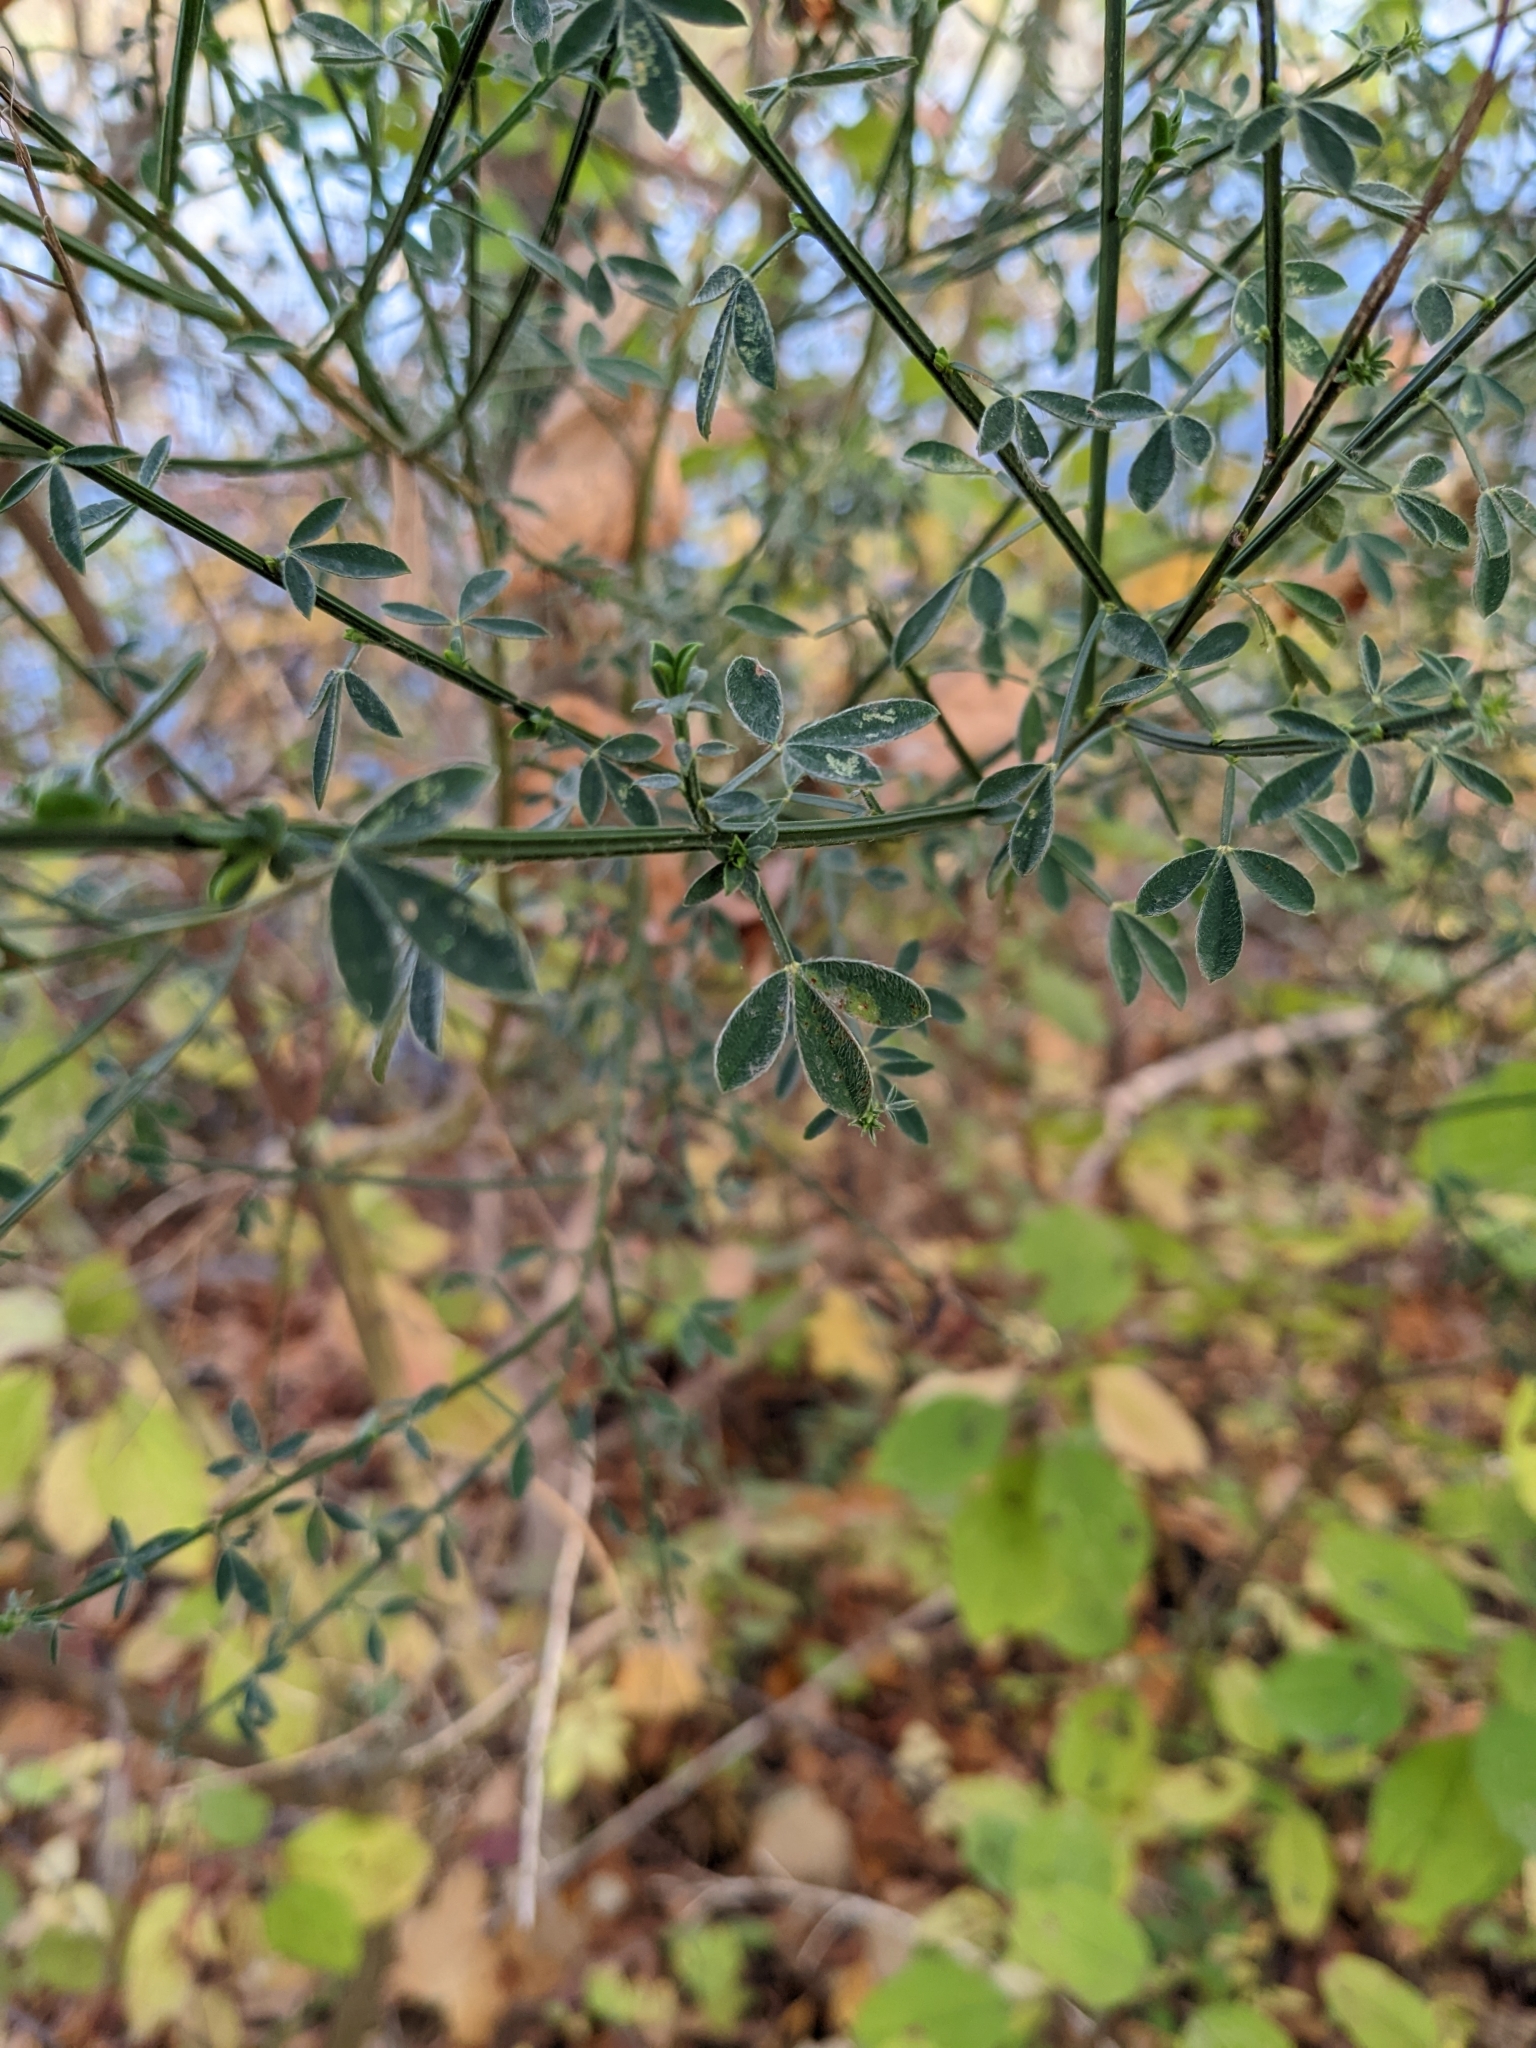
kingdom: Plantae
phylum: Tracheophyta
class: Magnoliopsida
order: Fabales
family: Fabaceae
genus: Cytisus
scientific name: Cytisus scoparius
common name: Scotch broom
